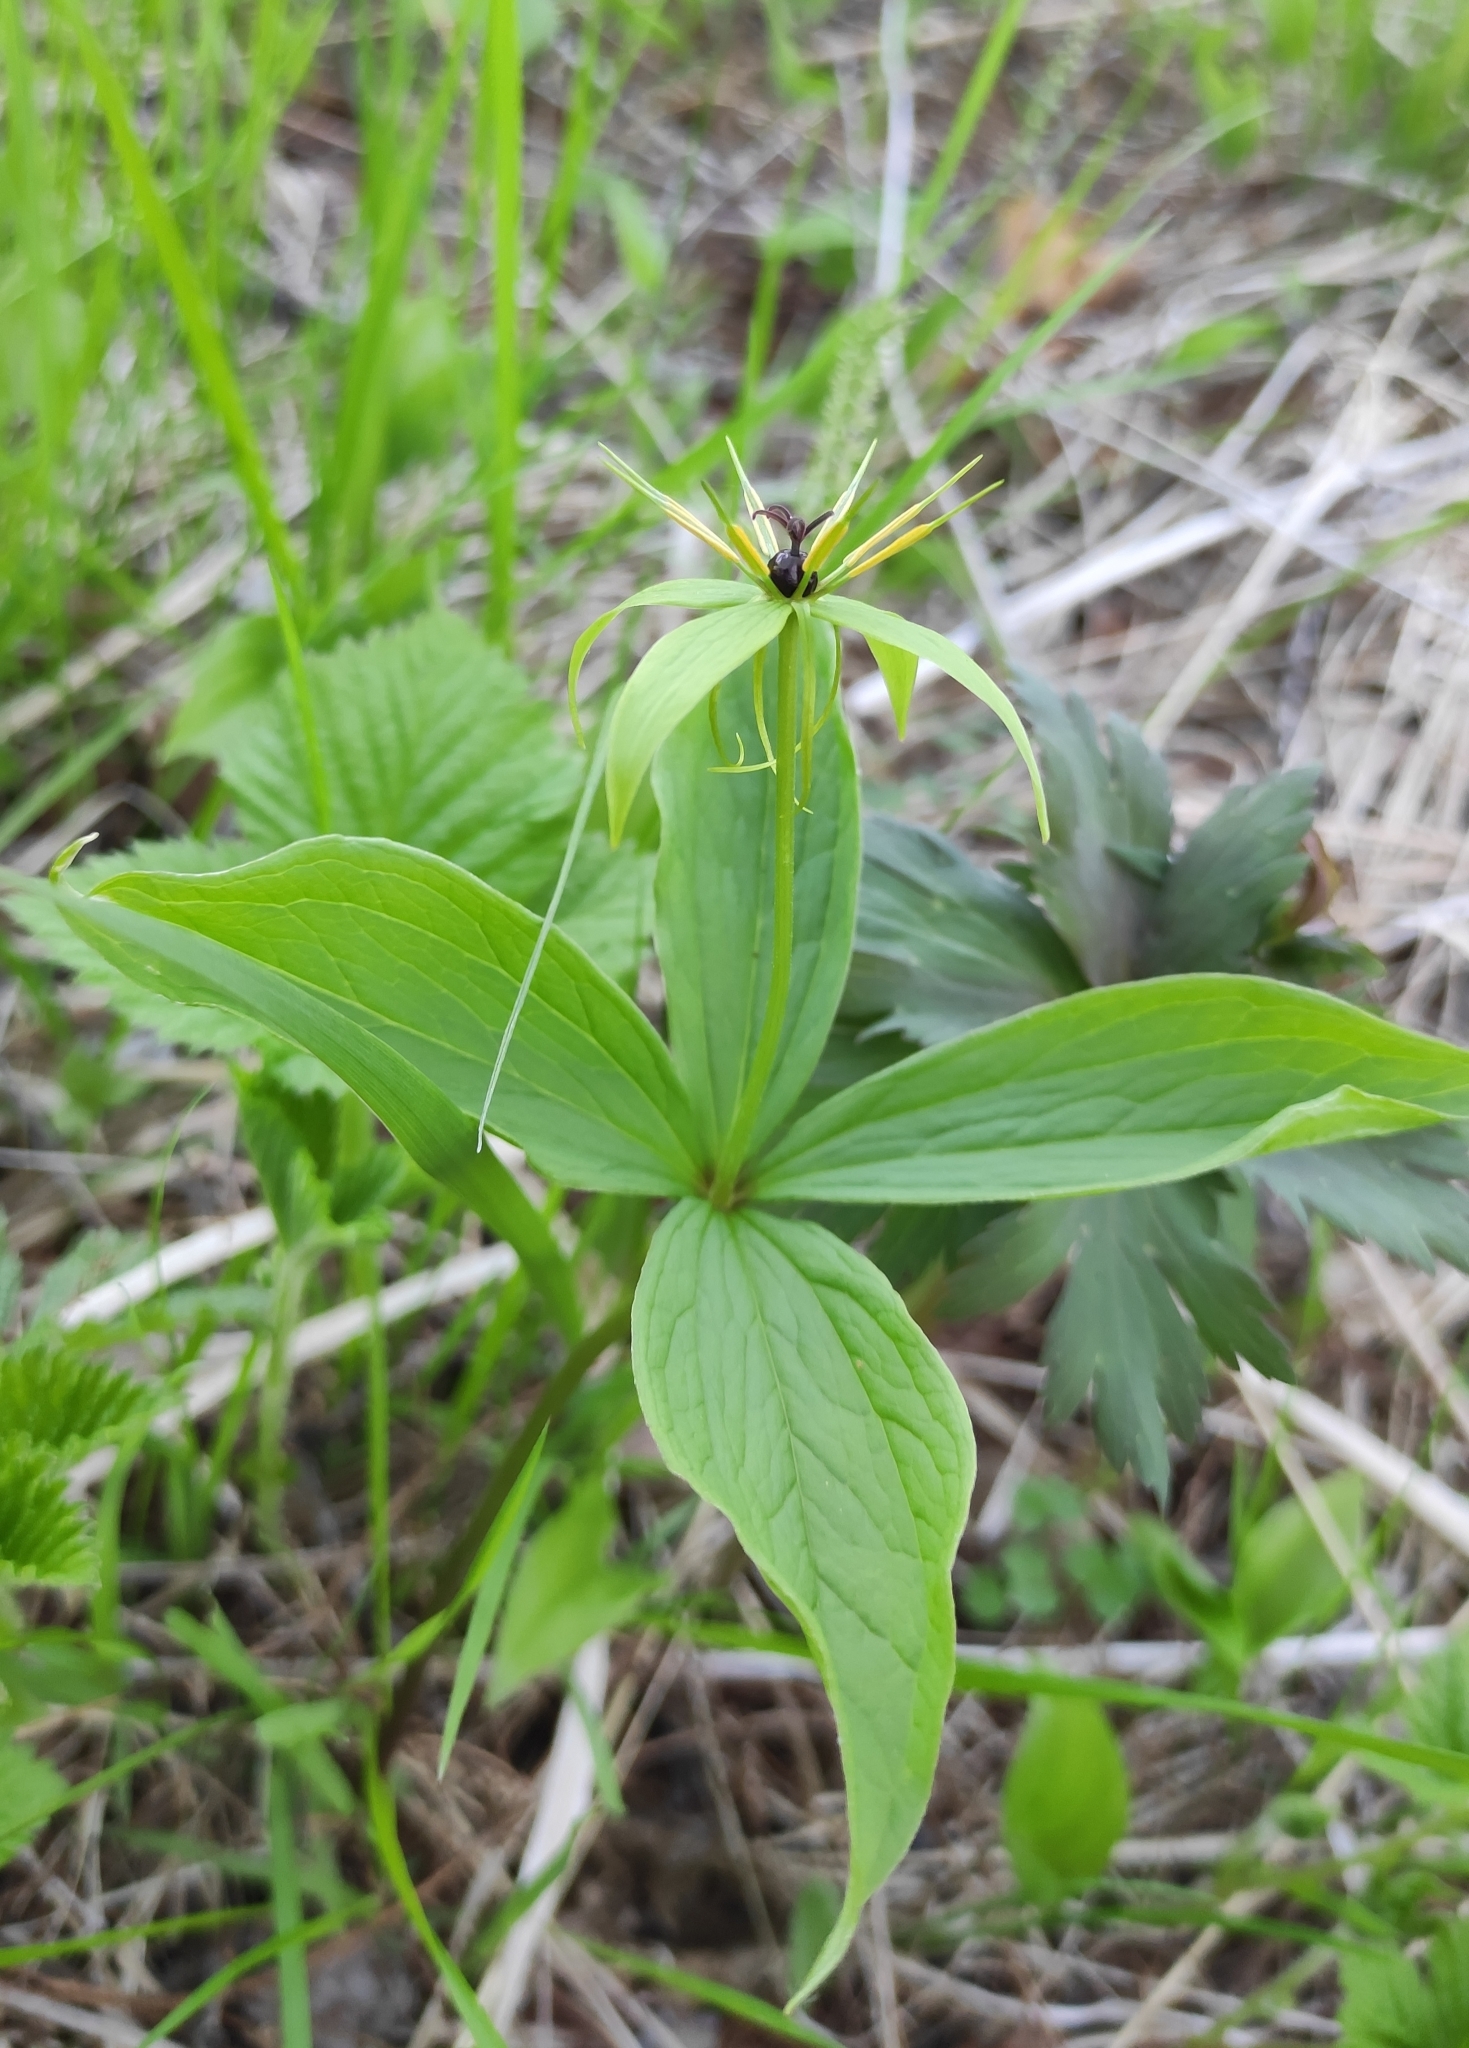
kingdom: Plantae
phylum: Tracheophyta
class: Liliopsida
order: Liliales
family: Melanthiaceae
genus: Paris
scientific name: Paris quadrifolia
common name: Herb-paris
